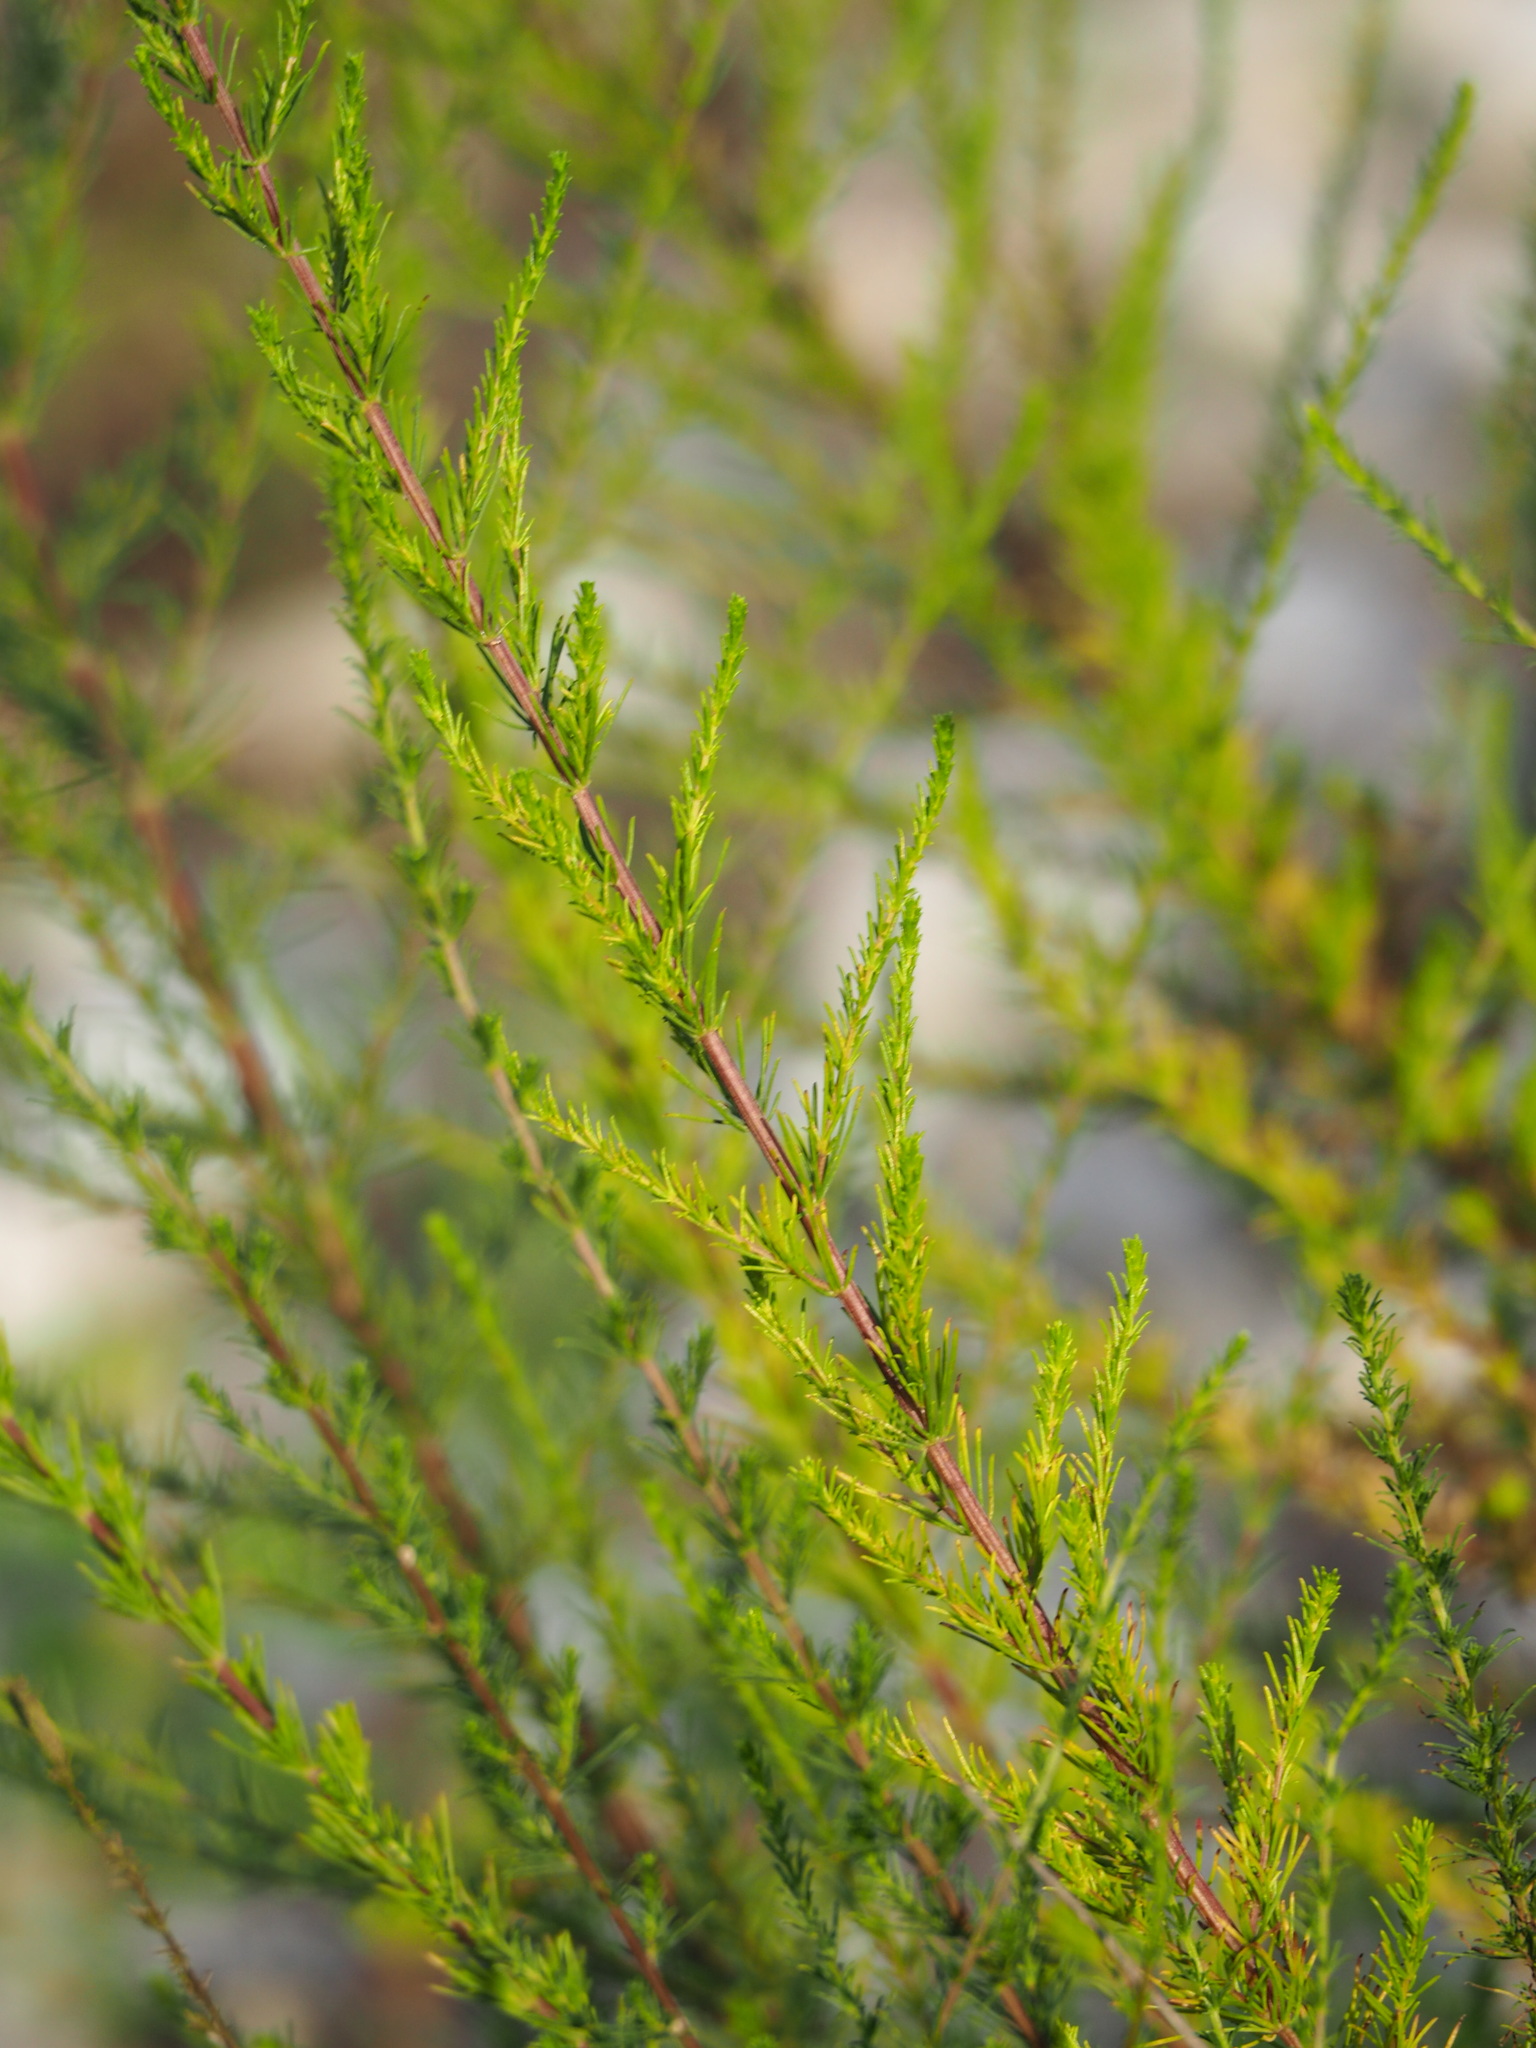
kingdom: Plantae
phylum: Tracheophyta
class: Magnoliopsida
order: Asterales
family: Asteraceae
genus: Artemisia
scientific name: Artemisia capillaris
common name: Yin-chen wormwood
